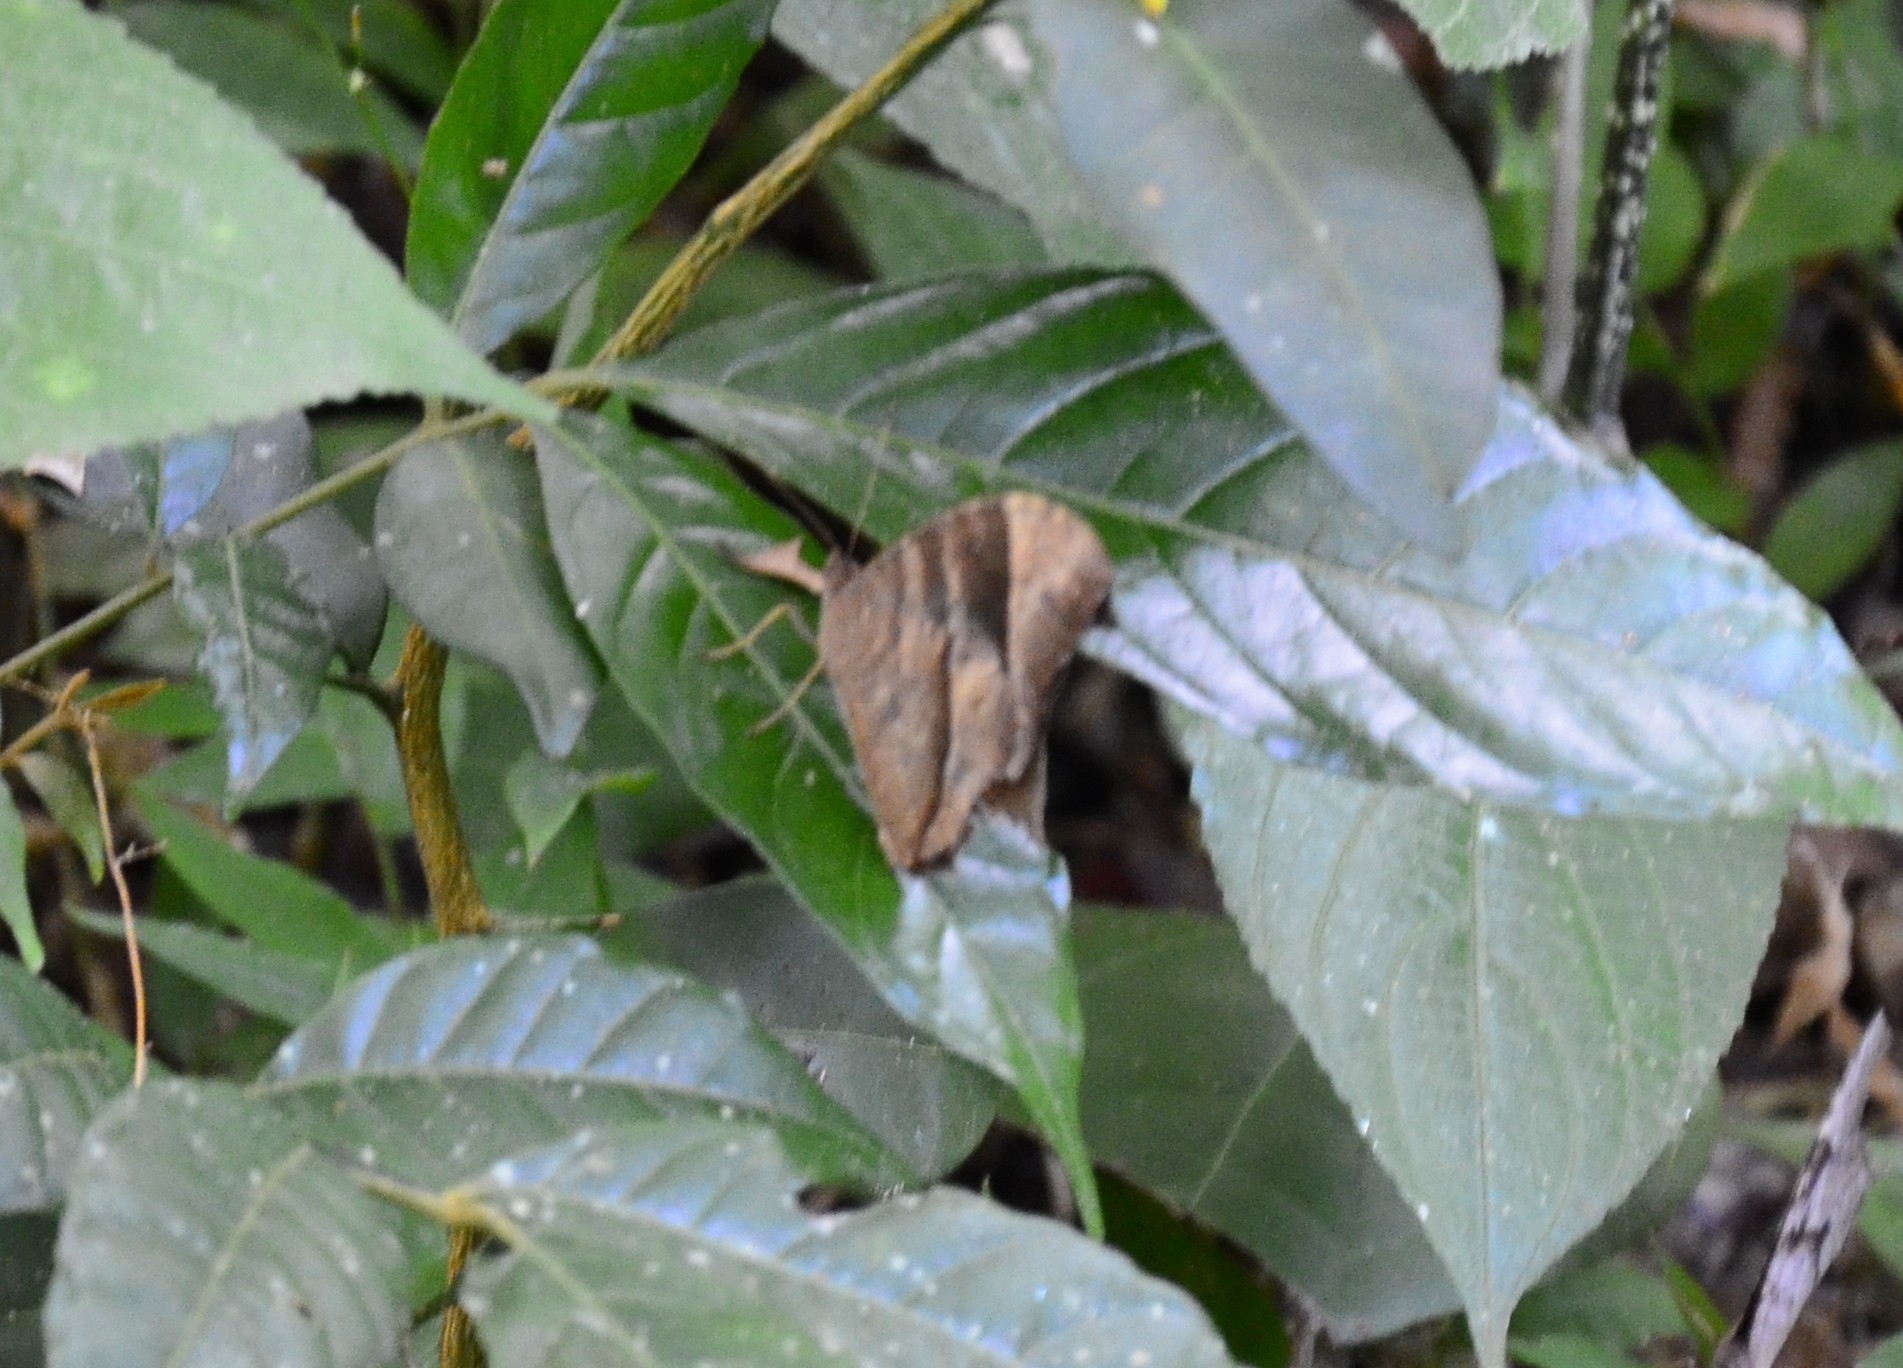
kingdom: Animalia
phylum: Arthropoda
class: Insecta
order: Lepidoptera
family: Nymphalidae
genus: Melanitis
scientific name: Melanitis leda
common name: Twilight brown
